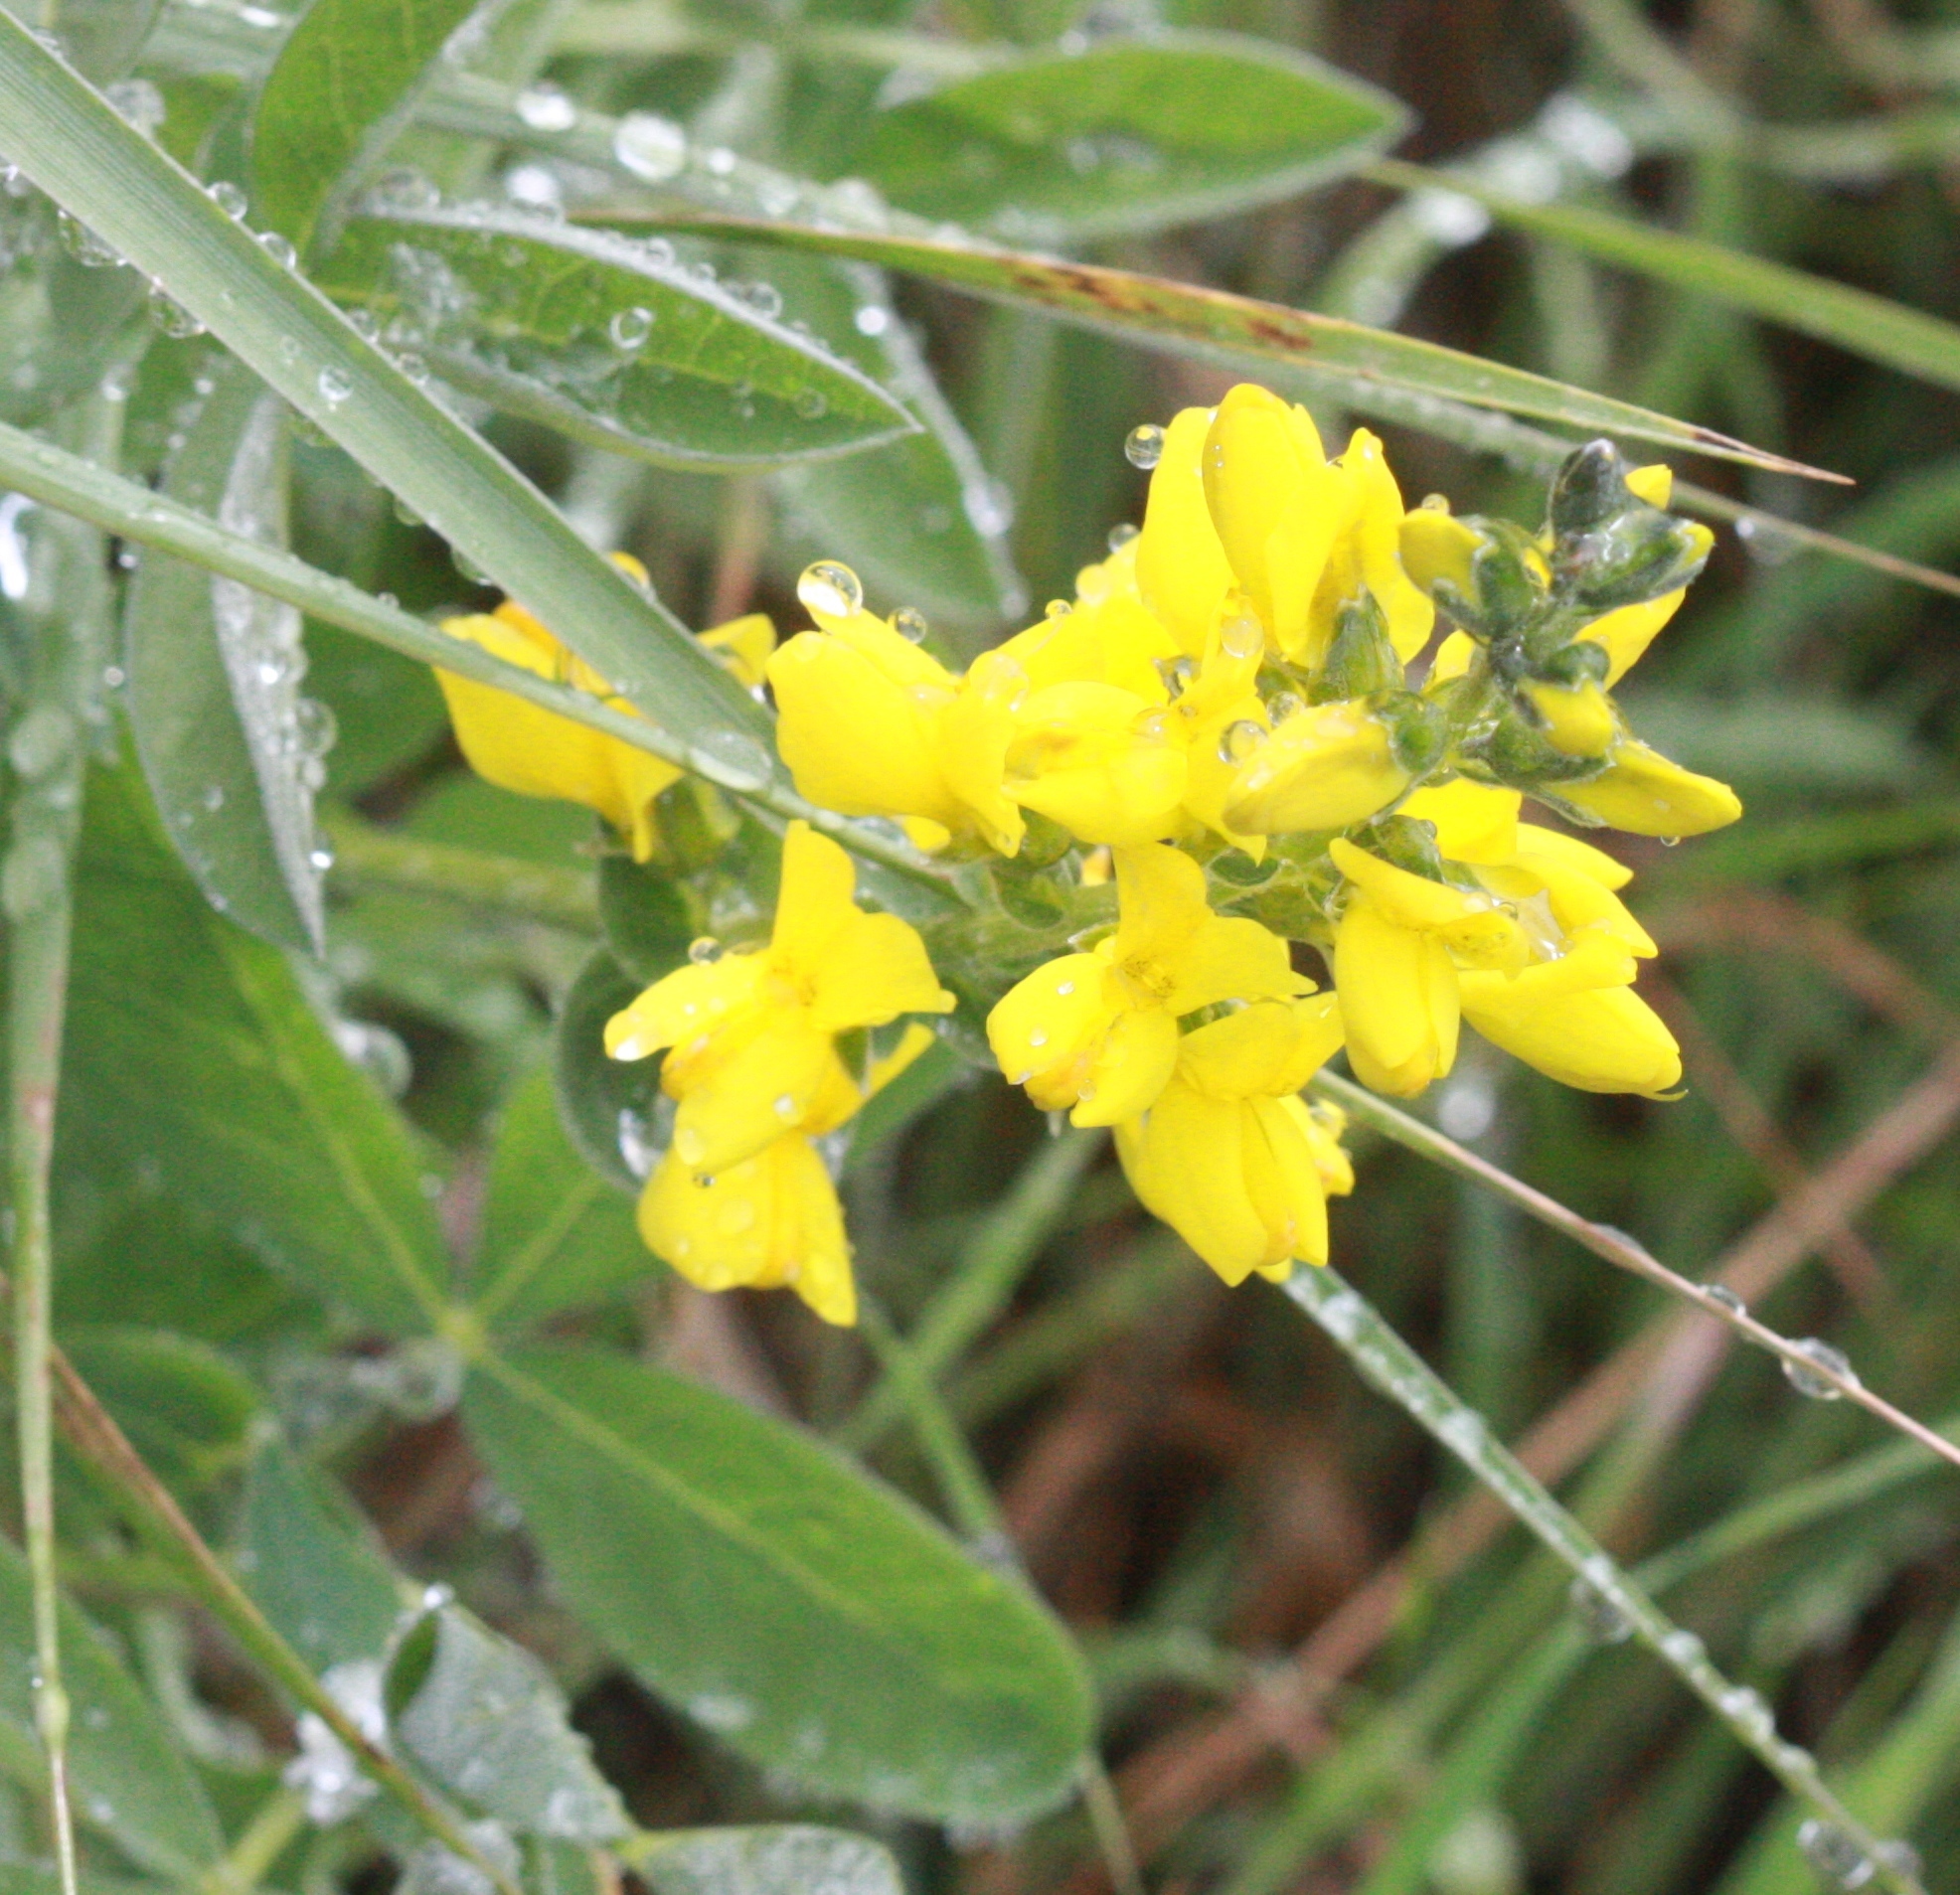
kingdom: Plantae
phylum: Tracheophyta
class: Magnoliopsida
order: Fabales
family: Fabaceae
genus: Thermopsis
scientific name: Thermopsis californica
